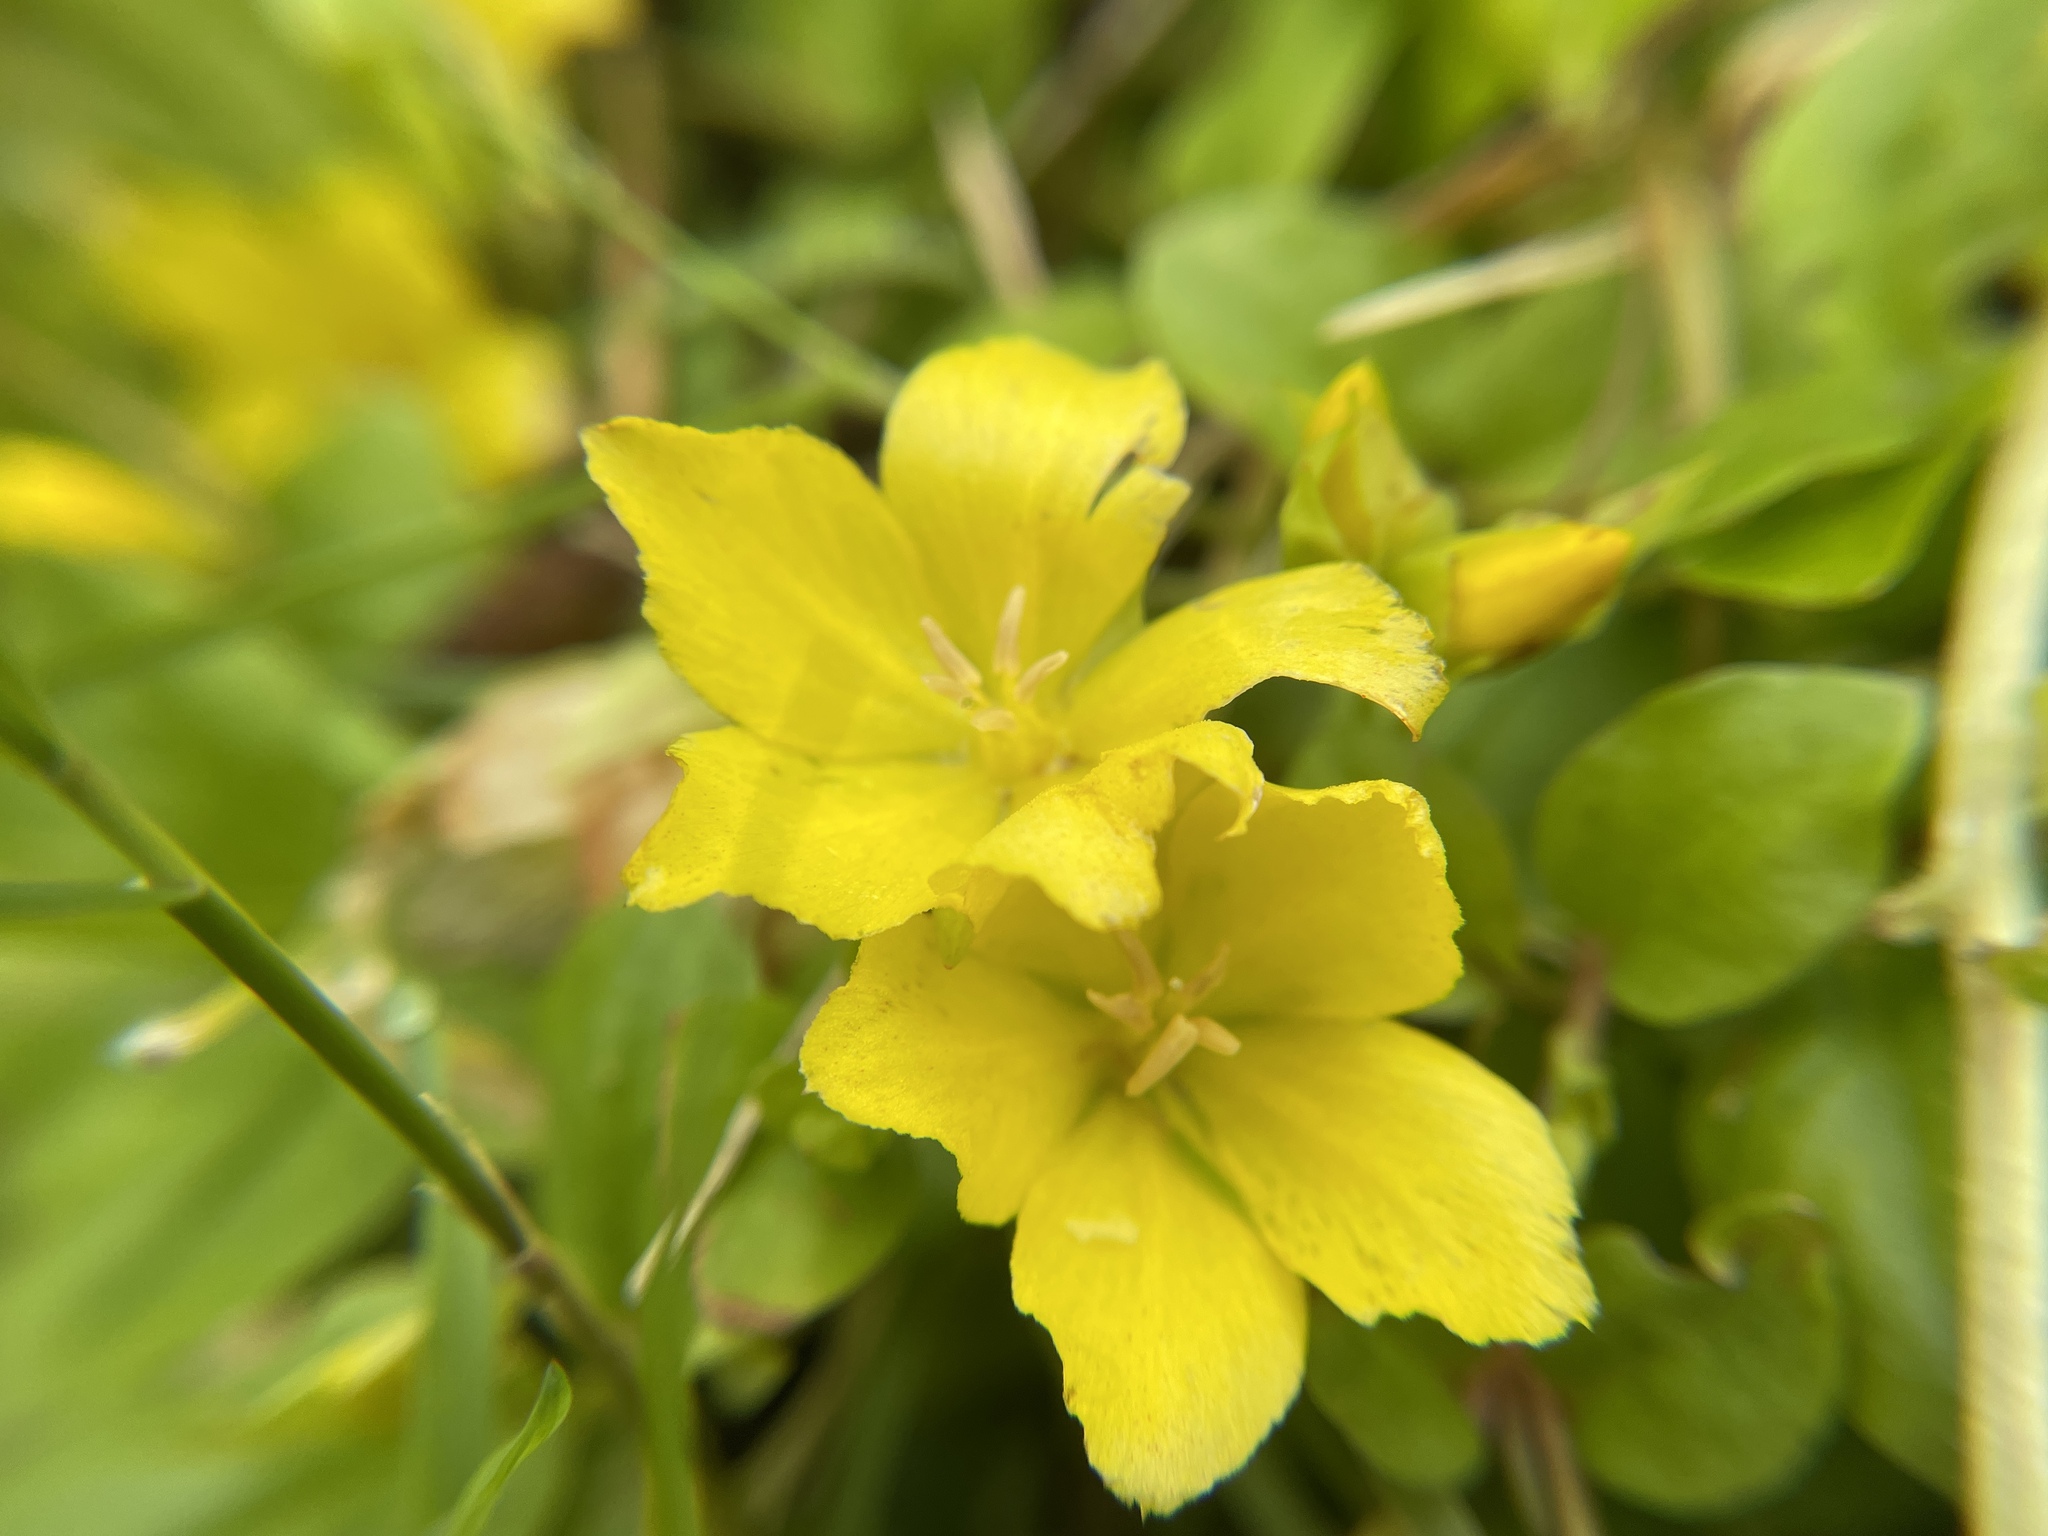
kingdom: Plantae
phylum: Tracheophyta
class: Magnoliopsida
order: Ericales
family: Primulaceae
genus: Lysimachia
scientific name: Lysimachia nummularia
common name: Moneywort
